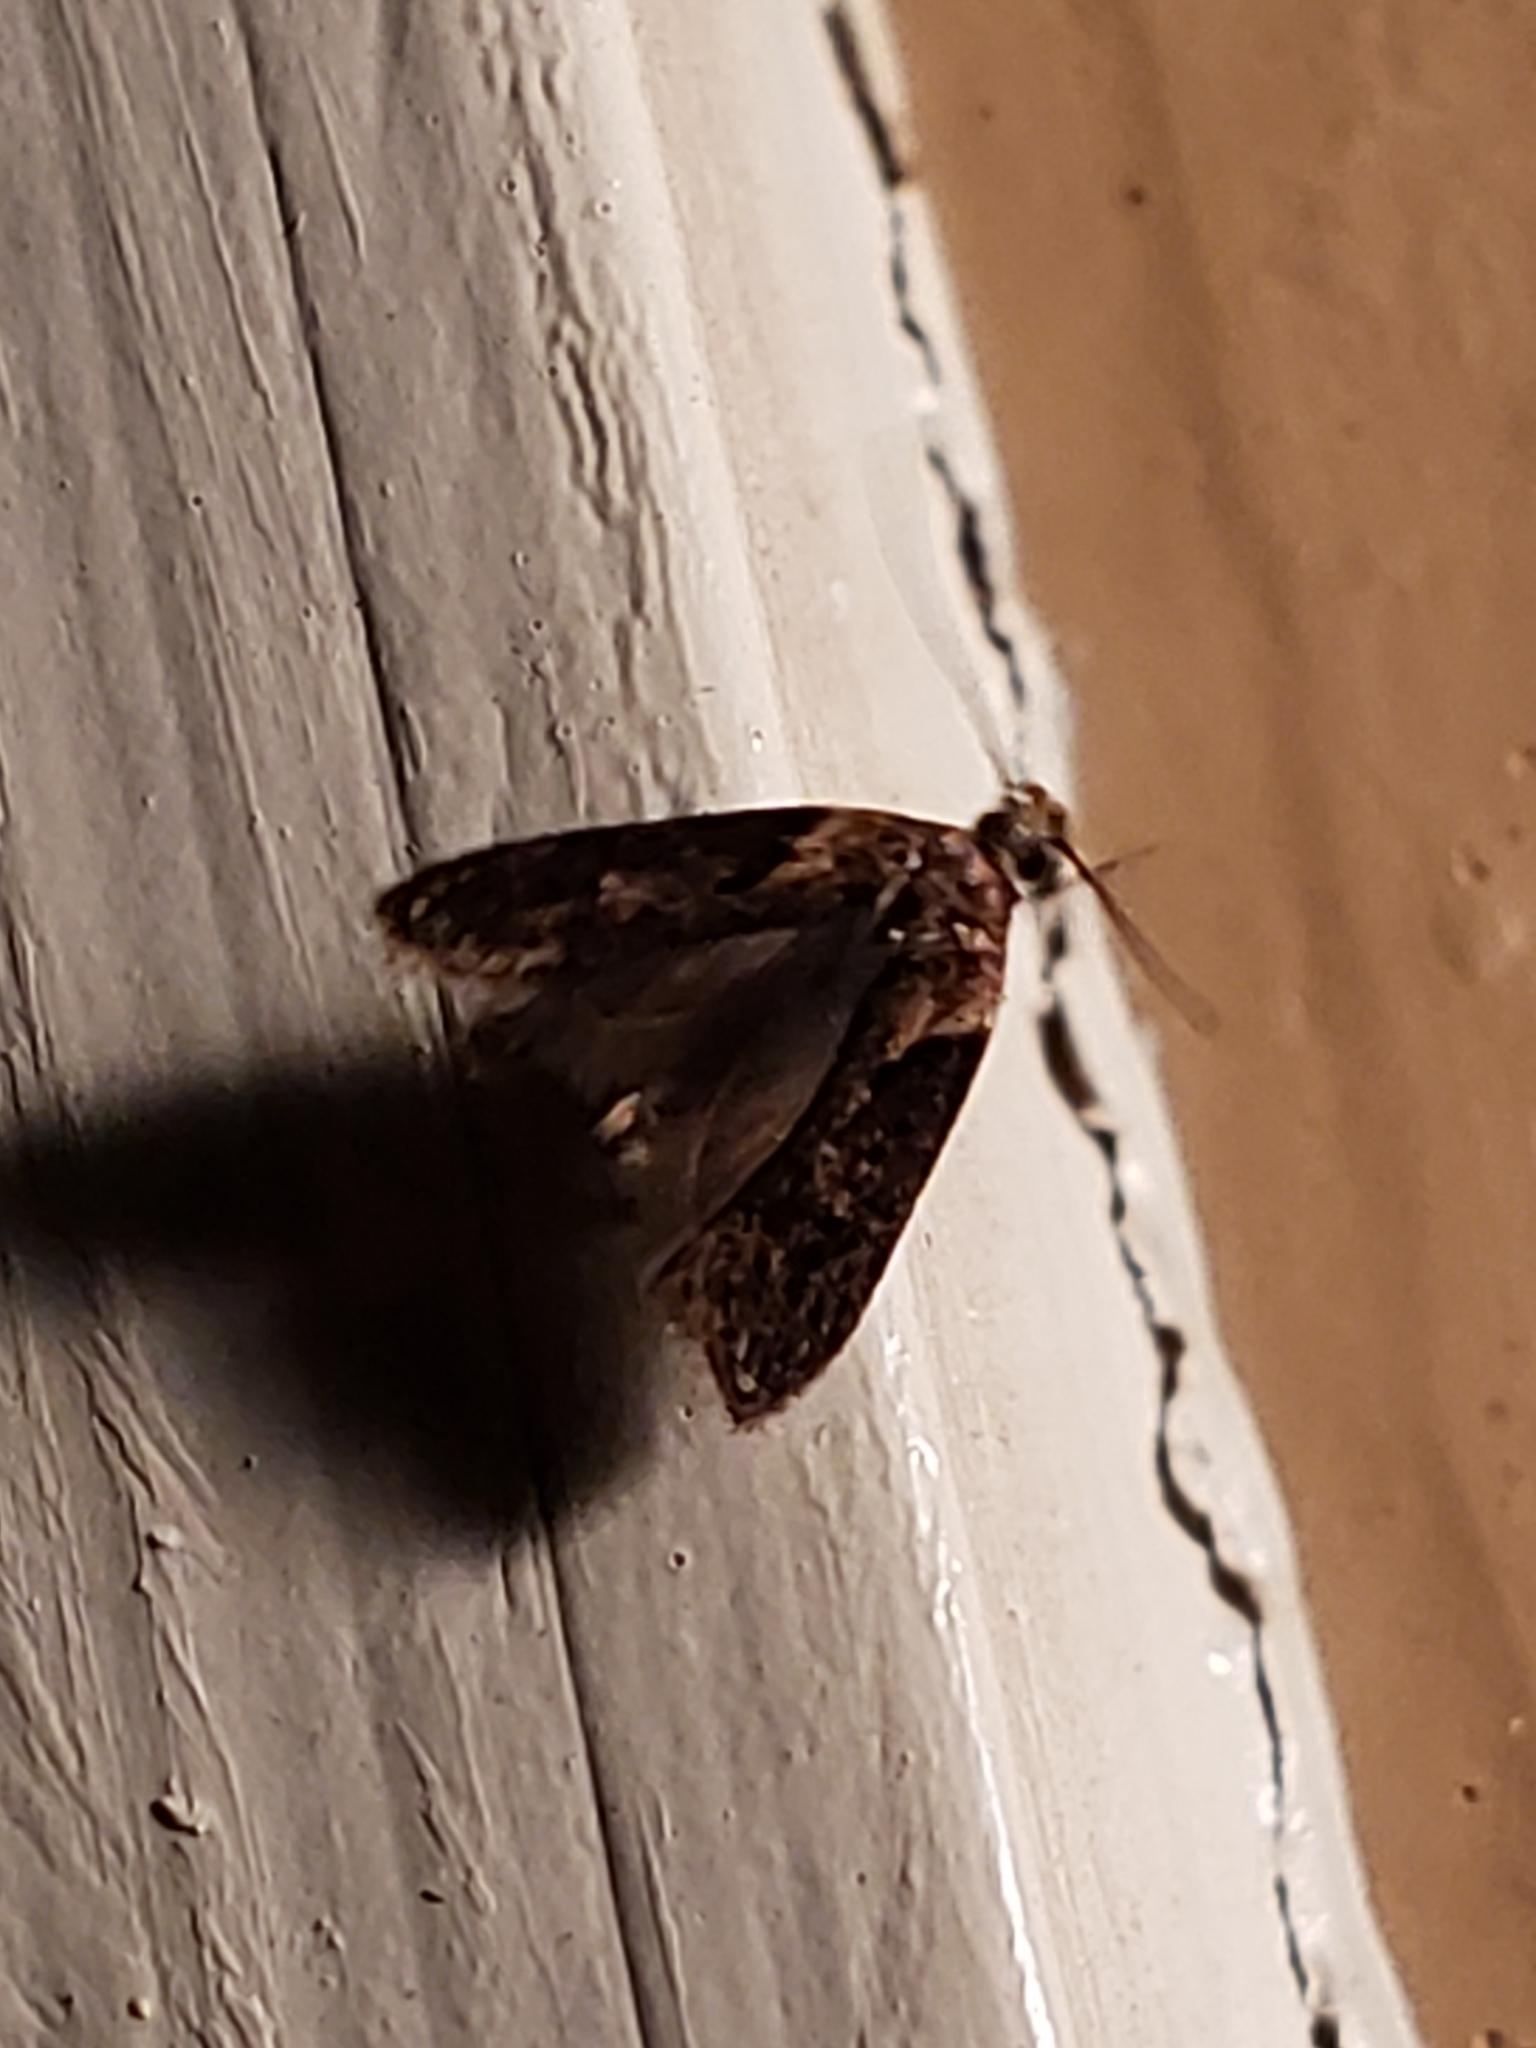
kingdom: Animalia
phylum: Arthropoda
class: Insecta
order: Lepidoptera
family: Gelechiidae
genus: Chionodes
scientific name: Chionodes mediofuscella
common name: Black-smudged chionodes moth
